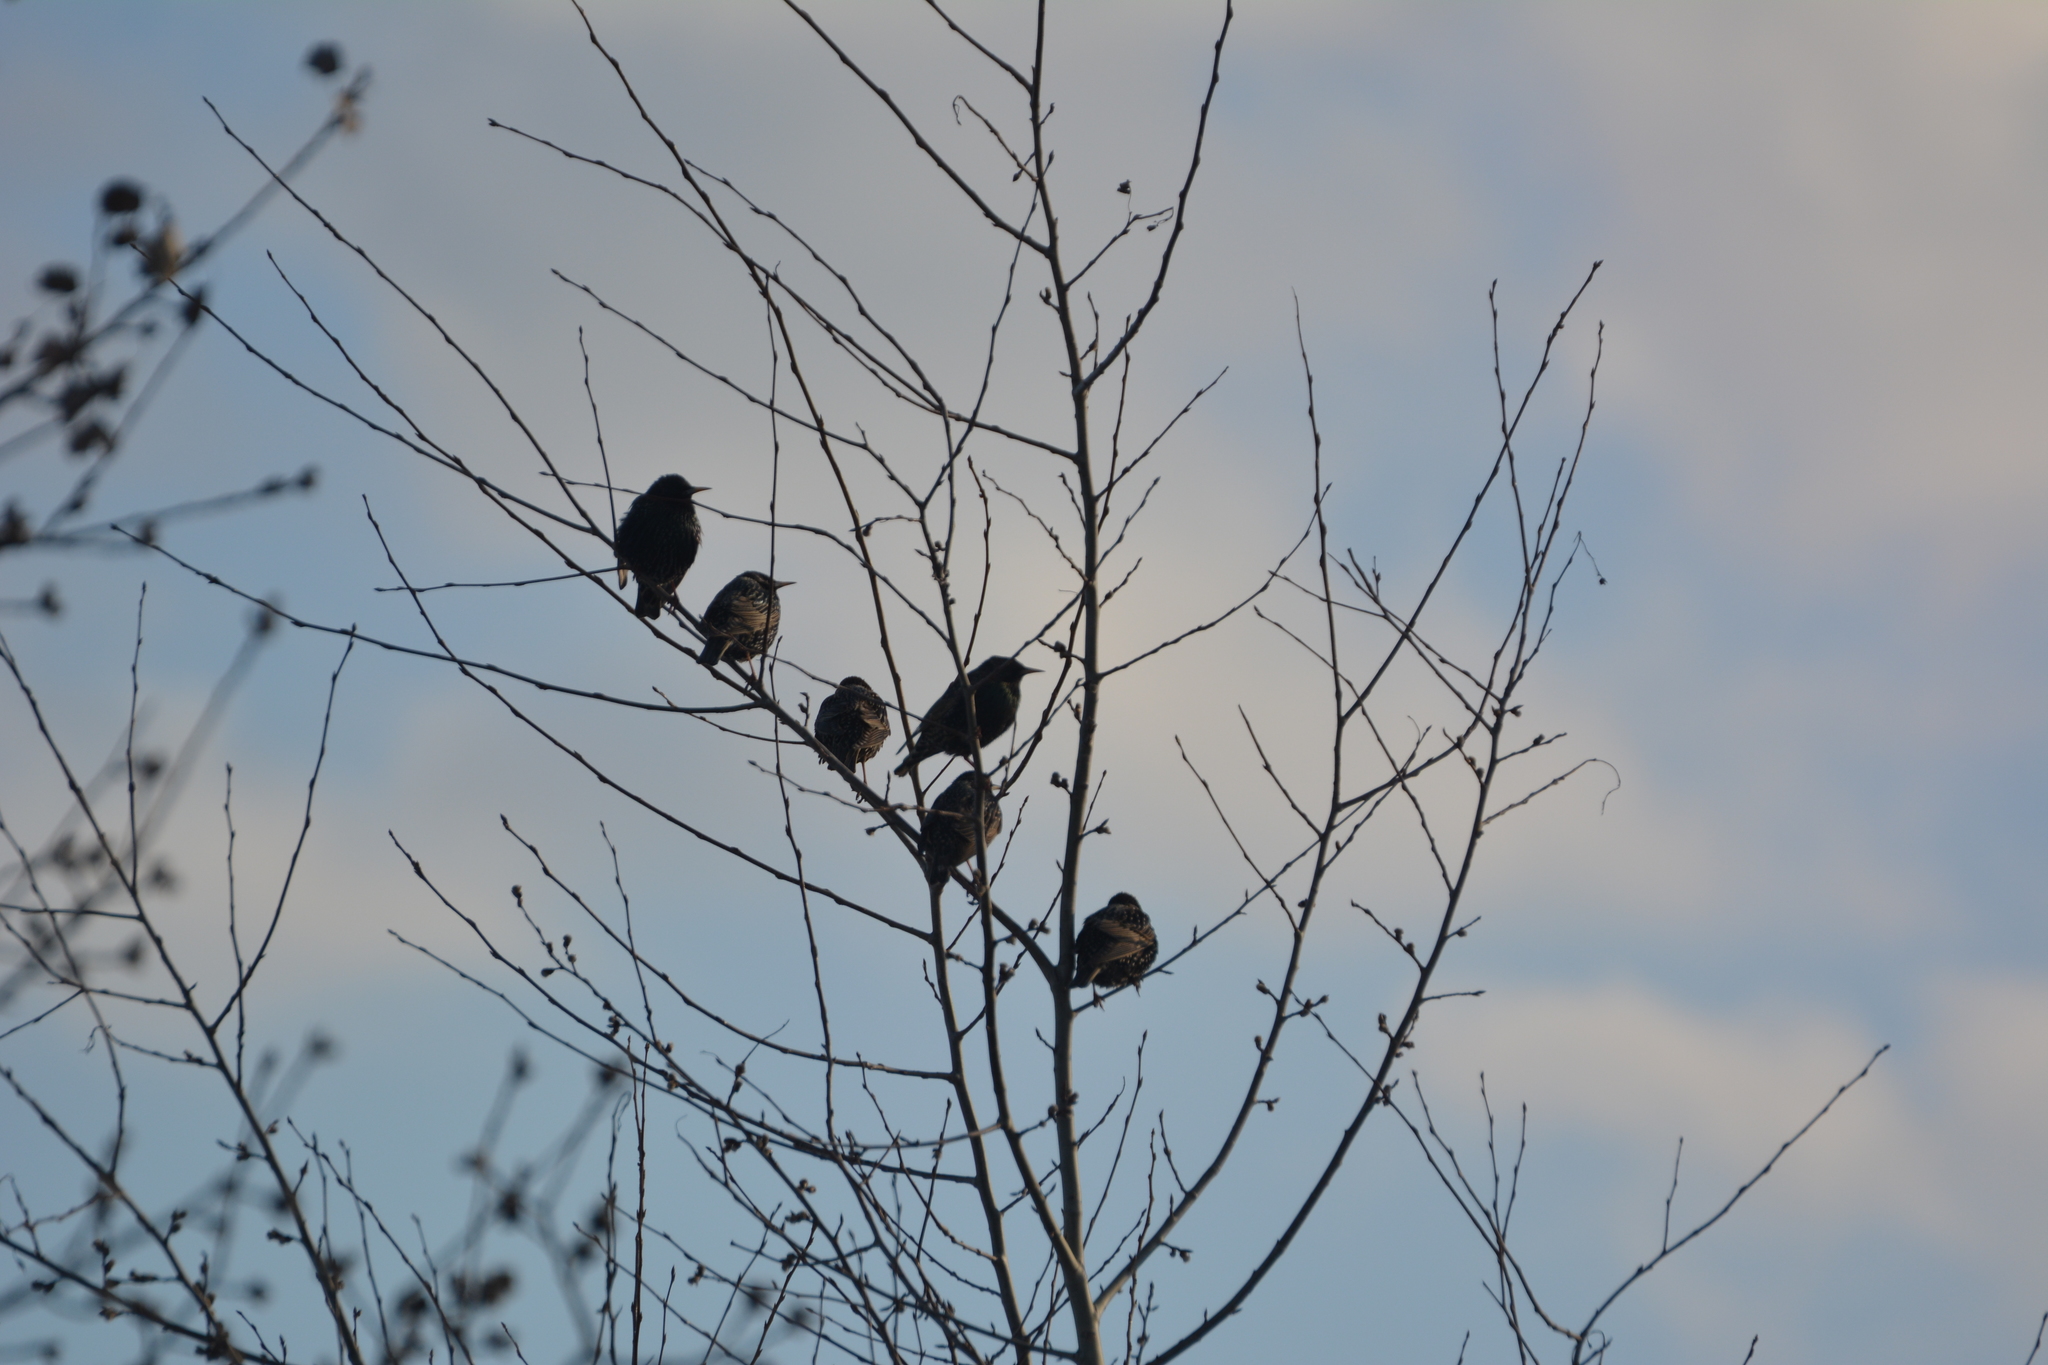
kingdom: Animalia
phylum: Chordata
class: Aves
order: Passeriformes
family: Sturnidae
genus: Sturnus
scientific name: Sturnus vulgaris
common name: Common starling
